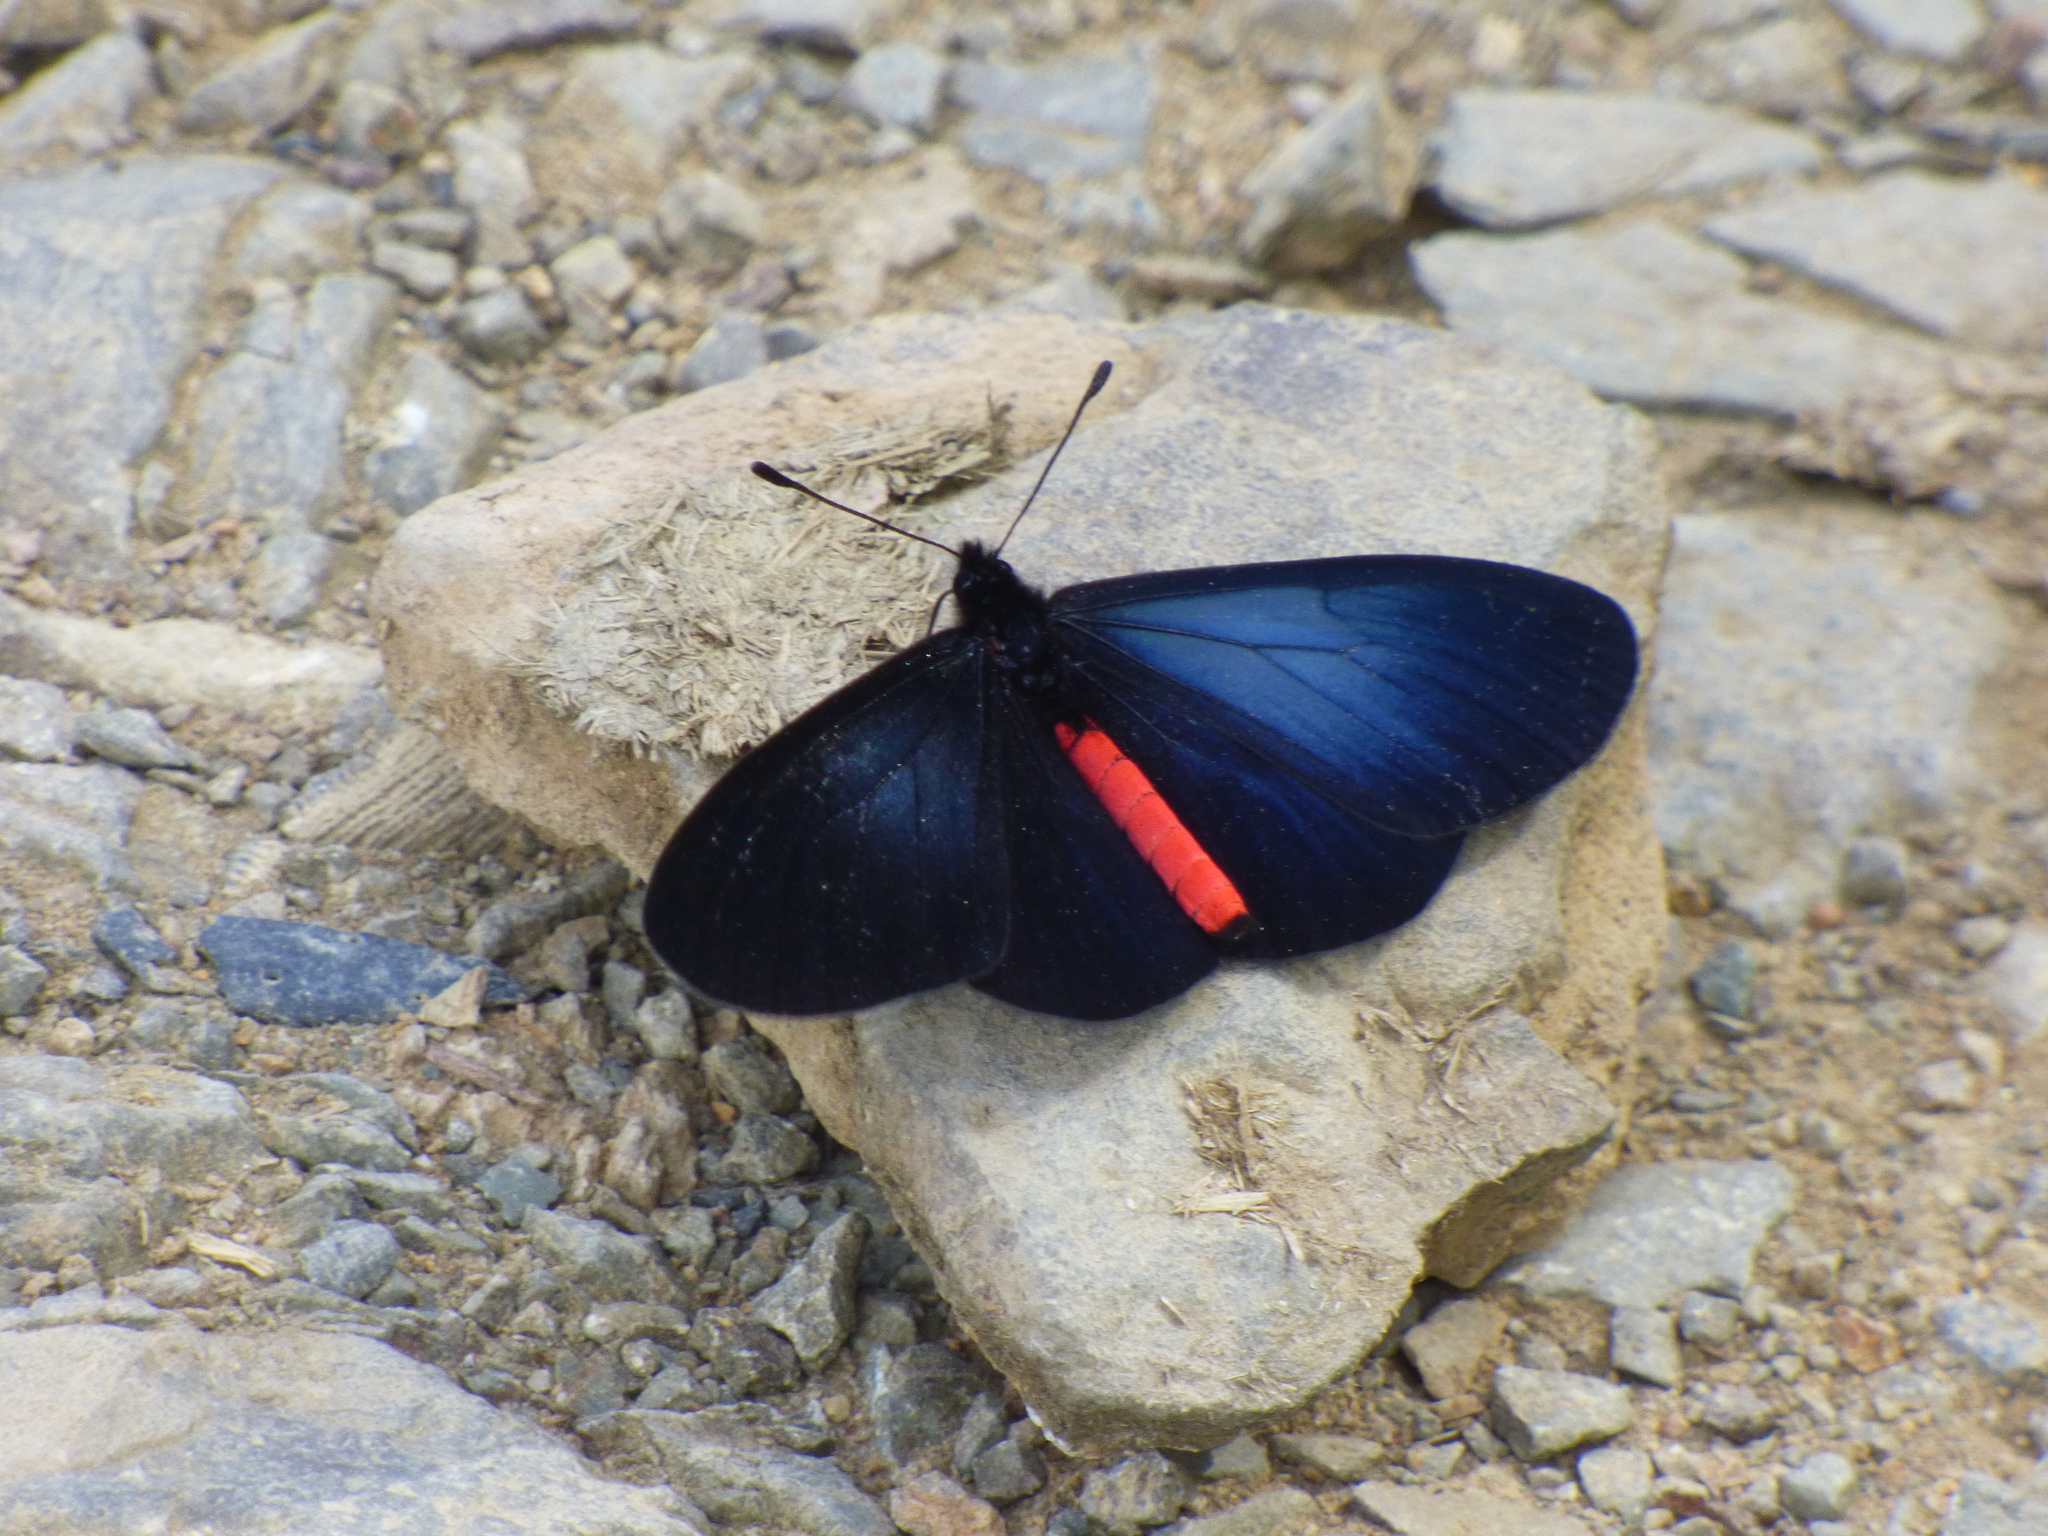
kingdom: Animalia
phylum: Arthropoda
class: Insecta
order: Lepidoptera
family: Nymphalidae
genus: Actinote
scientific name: Actinote neleus
